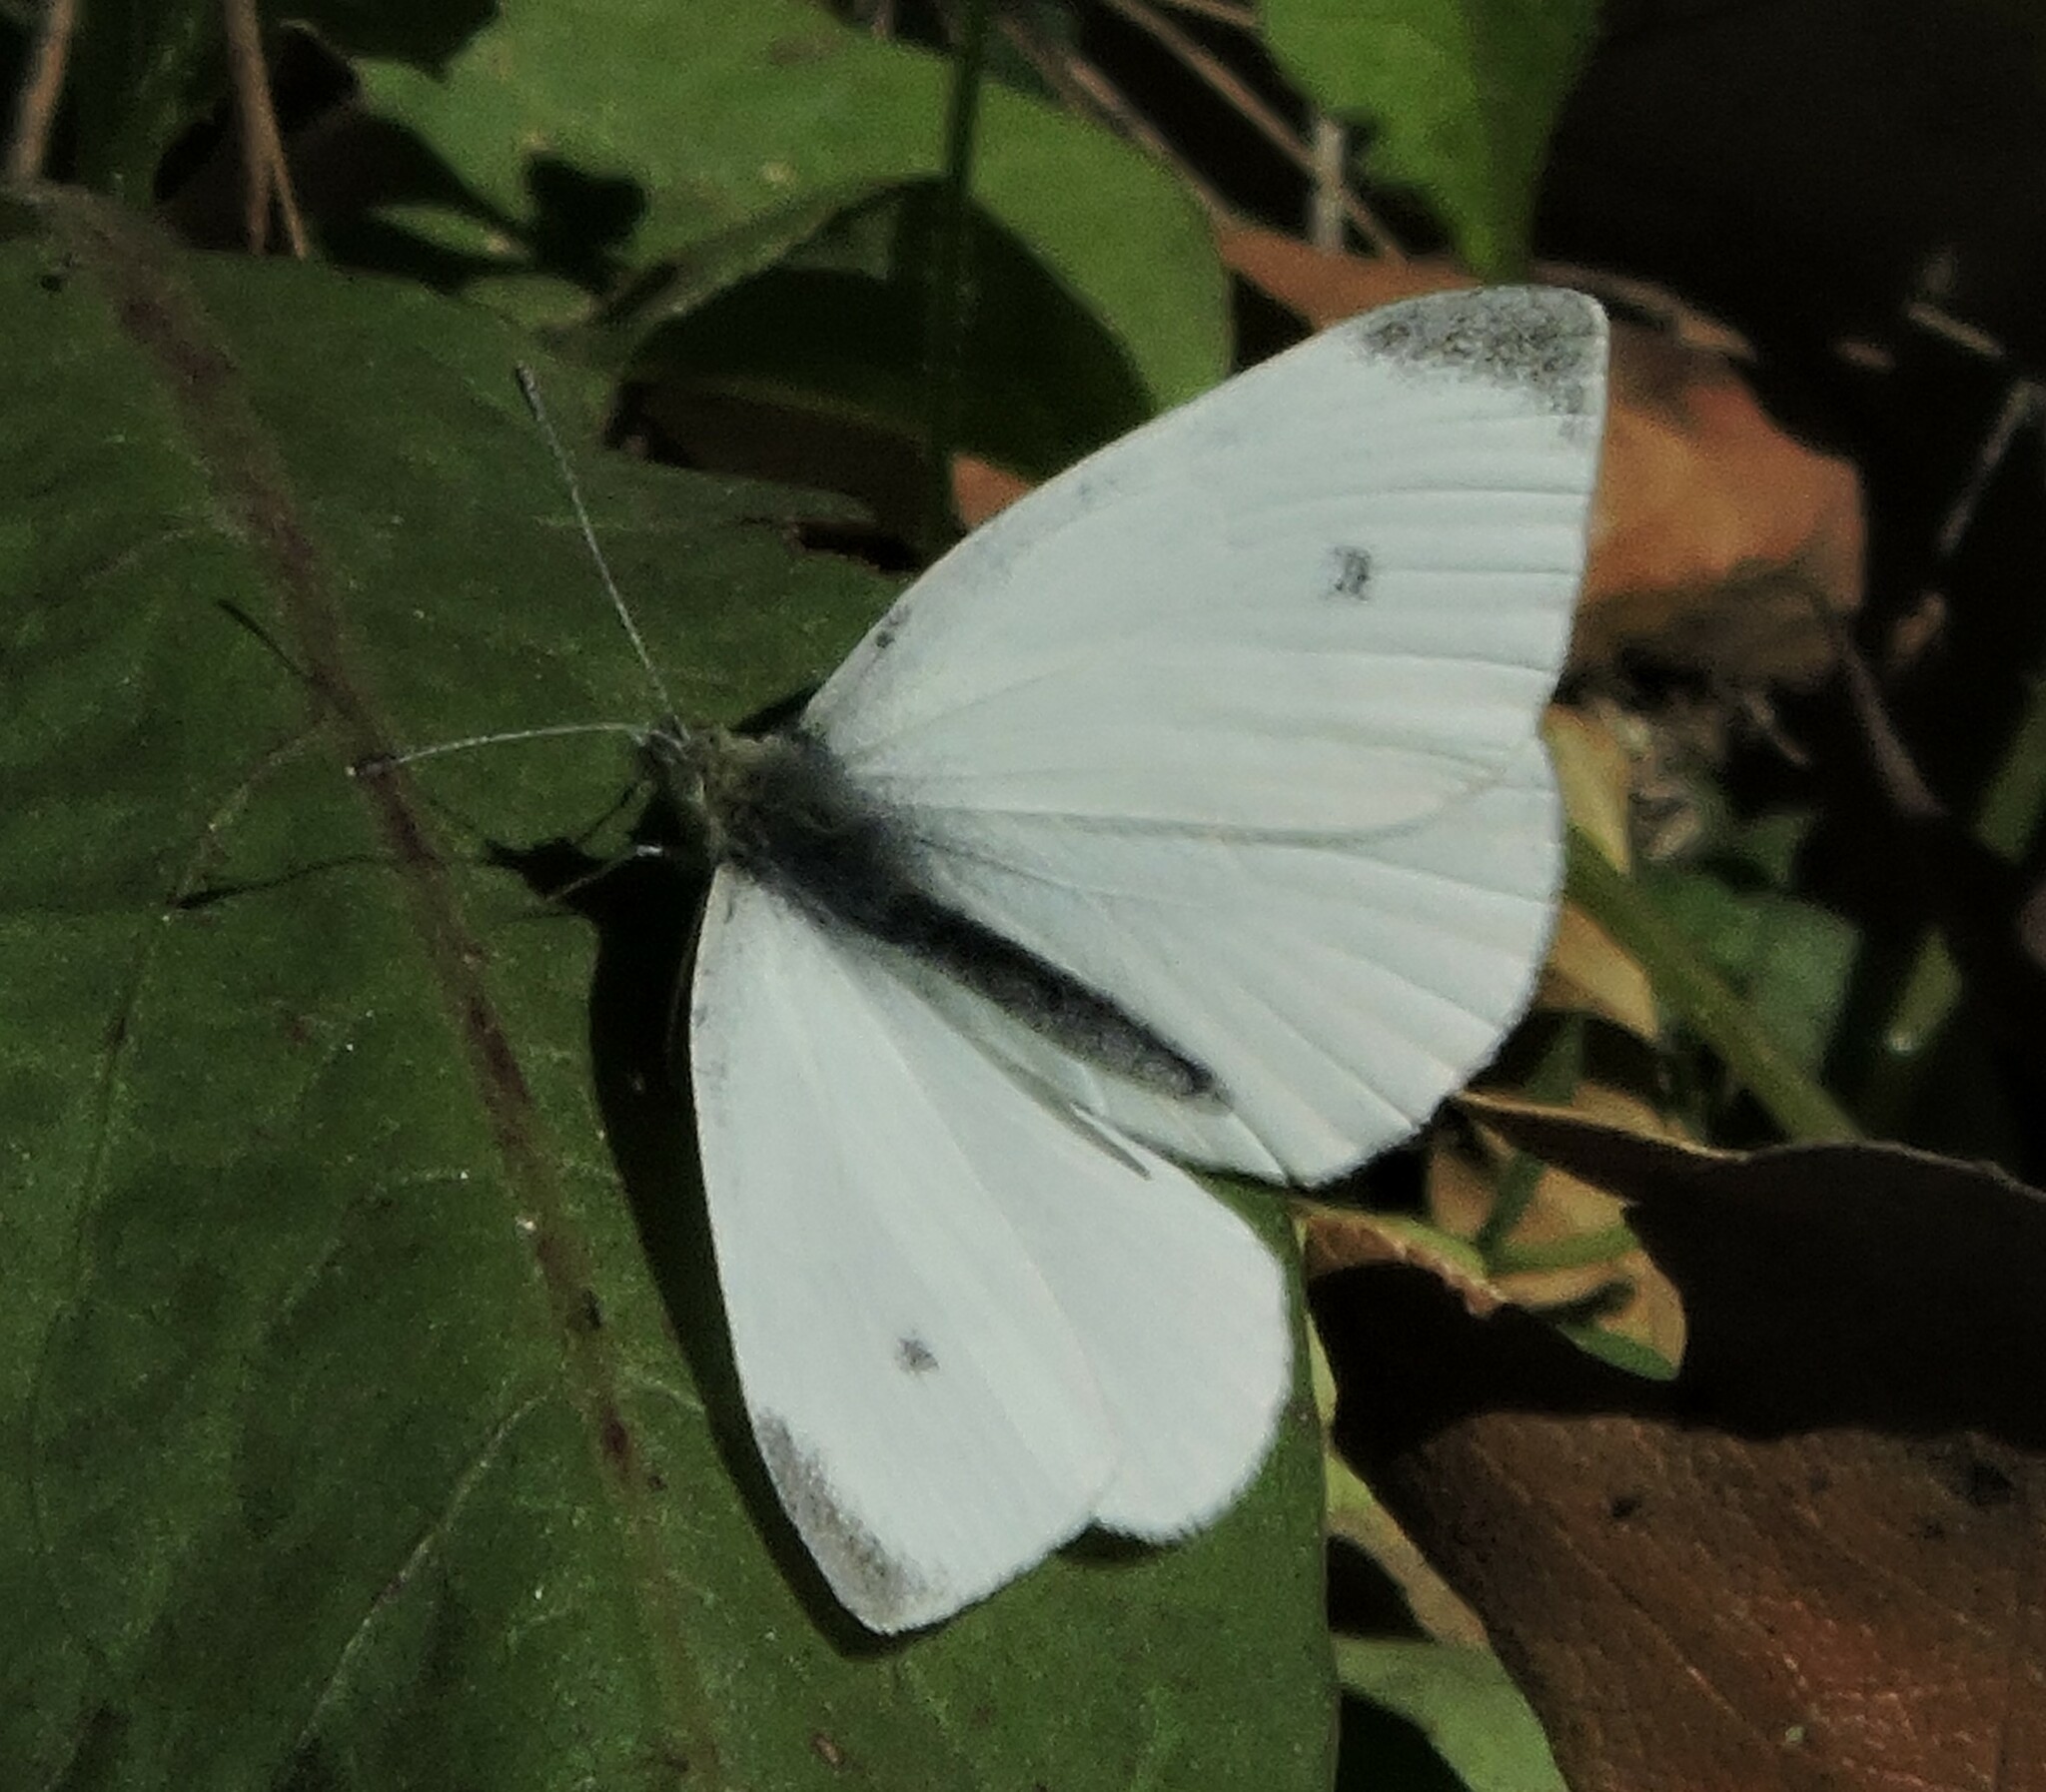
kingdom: Animalia
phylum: Arthropoda
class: Insecta
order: Lepidoptera
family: Pieridae
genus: Pieris
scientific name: Pieris rapae
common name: Small white
